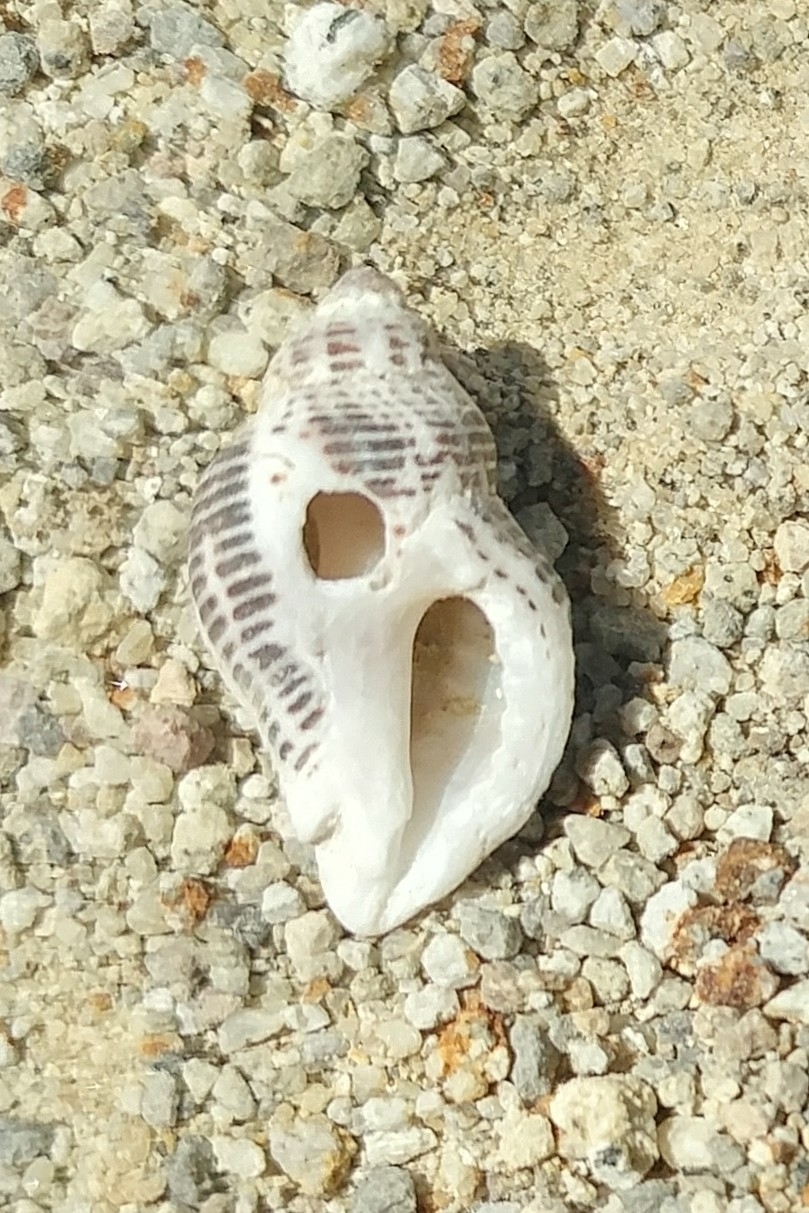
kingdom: Animalia
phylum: Mollusca
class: Gastropoda
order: Neogastropoda
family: Muricidae
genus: Acanthinucella
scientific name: Acanthinucella spirata
